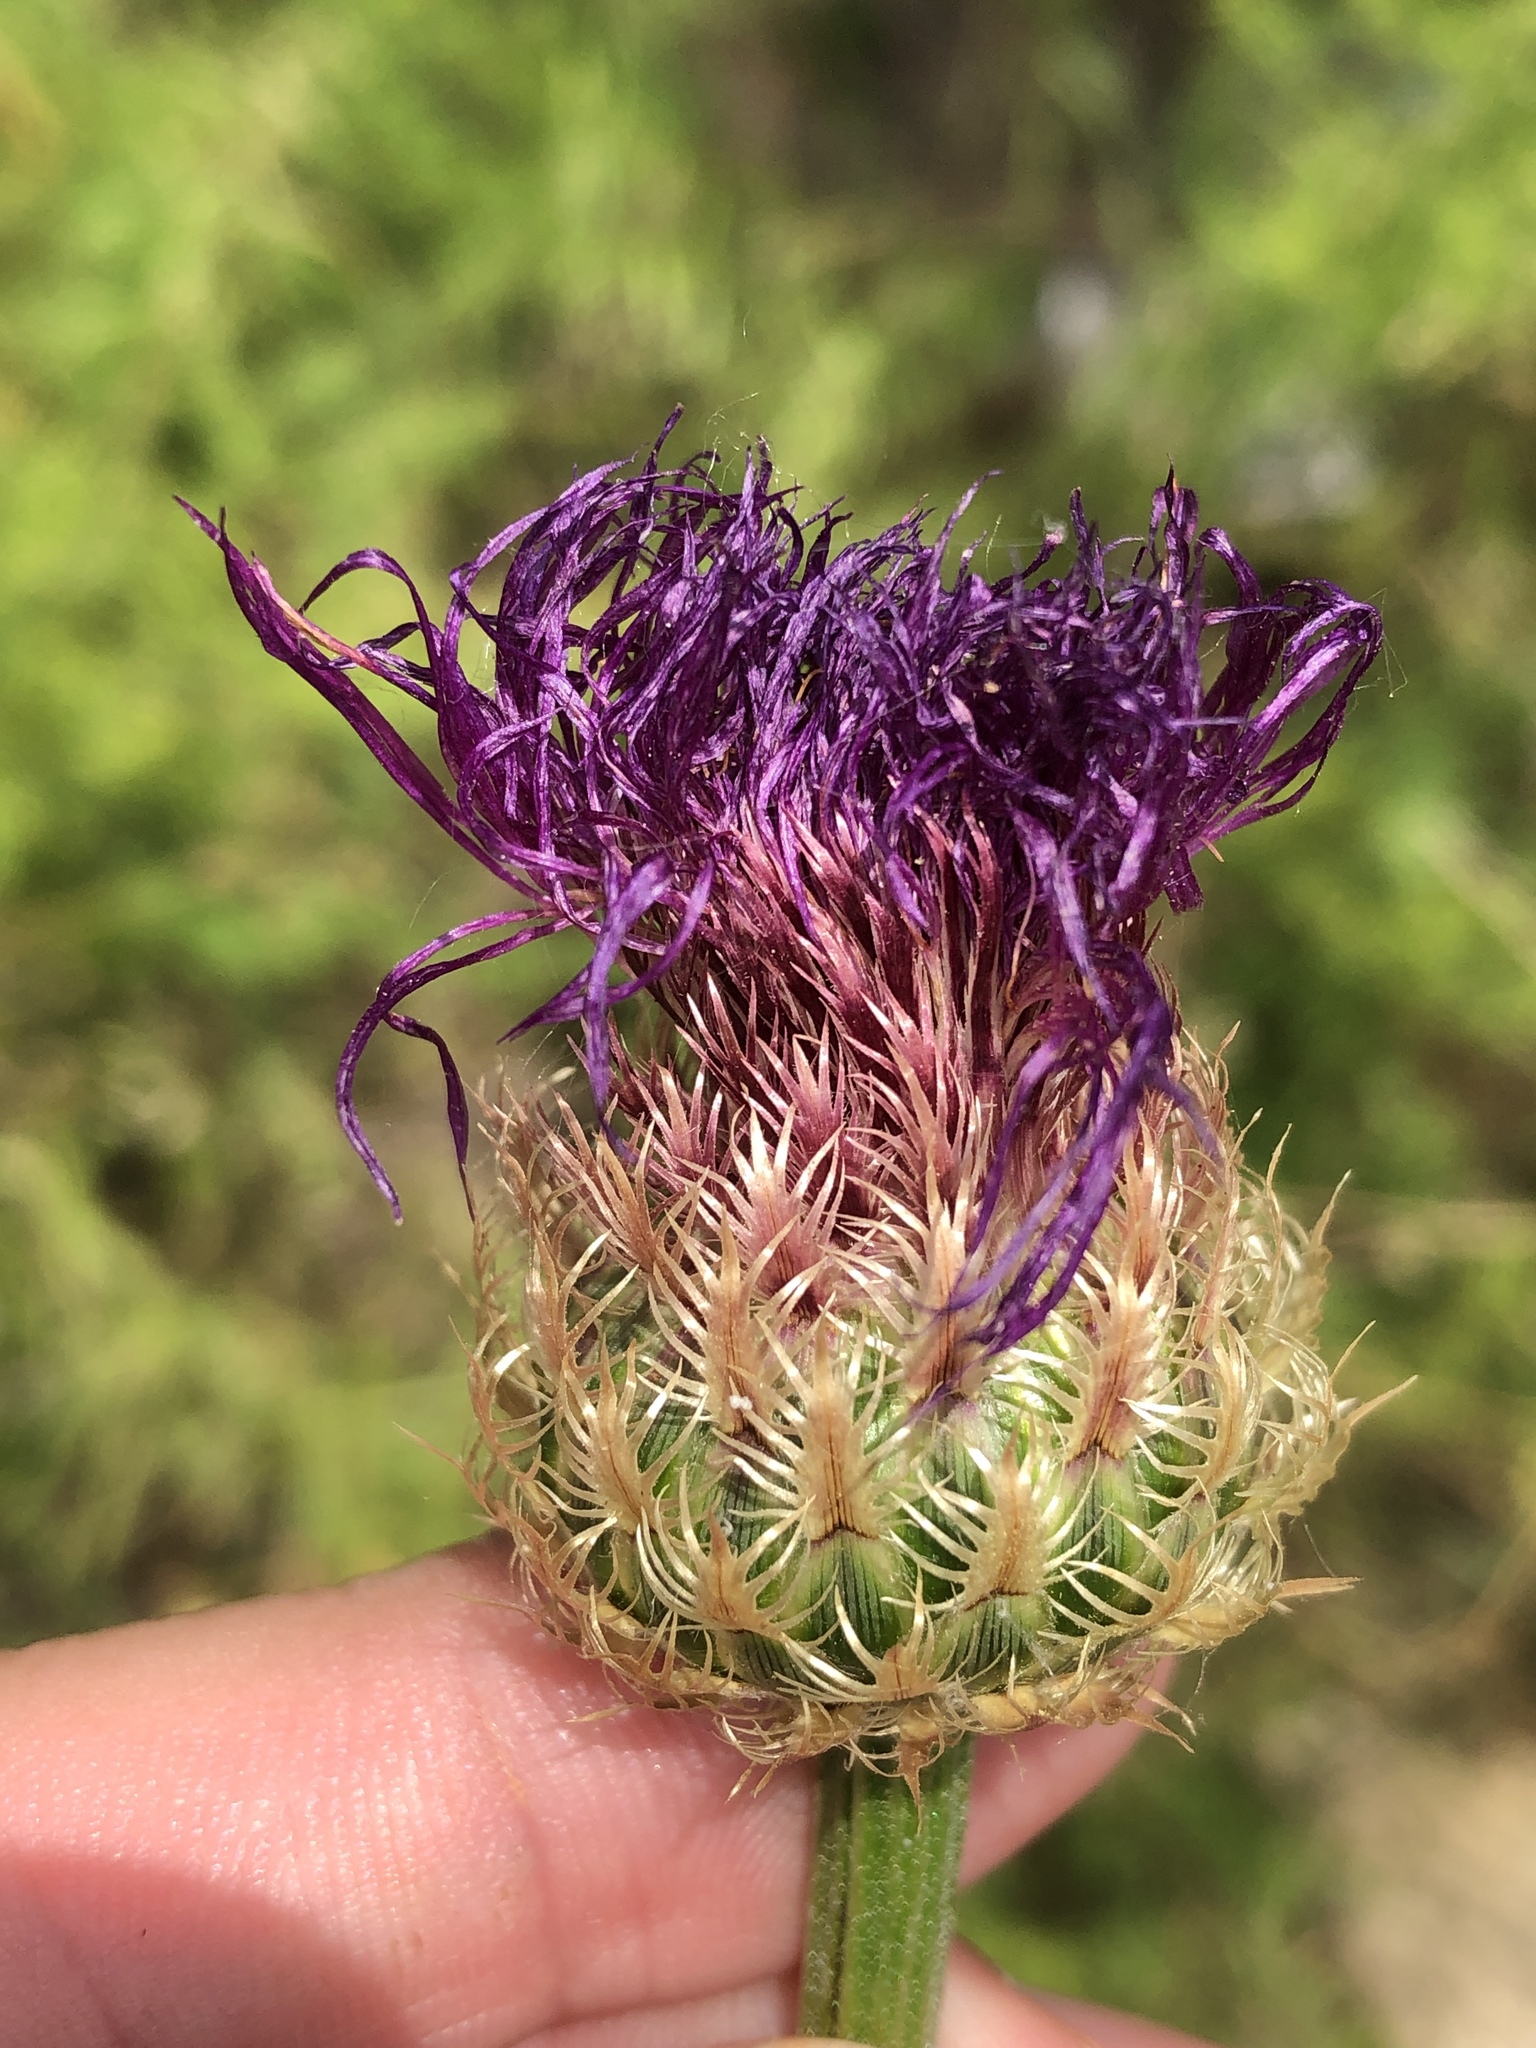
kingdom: Plantae
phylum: Tracheophyta
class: Magnoliopsida
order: Asterales
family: Asteraceae
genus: Plectocephalus
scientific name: Plectocephalus americanus
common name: American basket-flower
